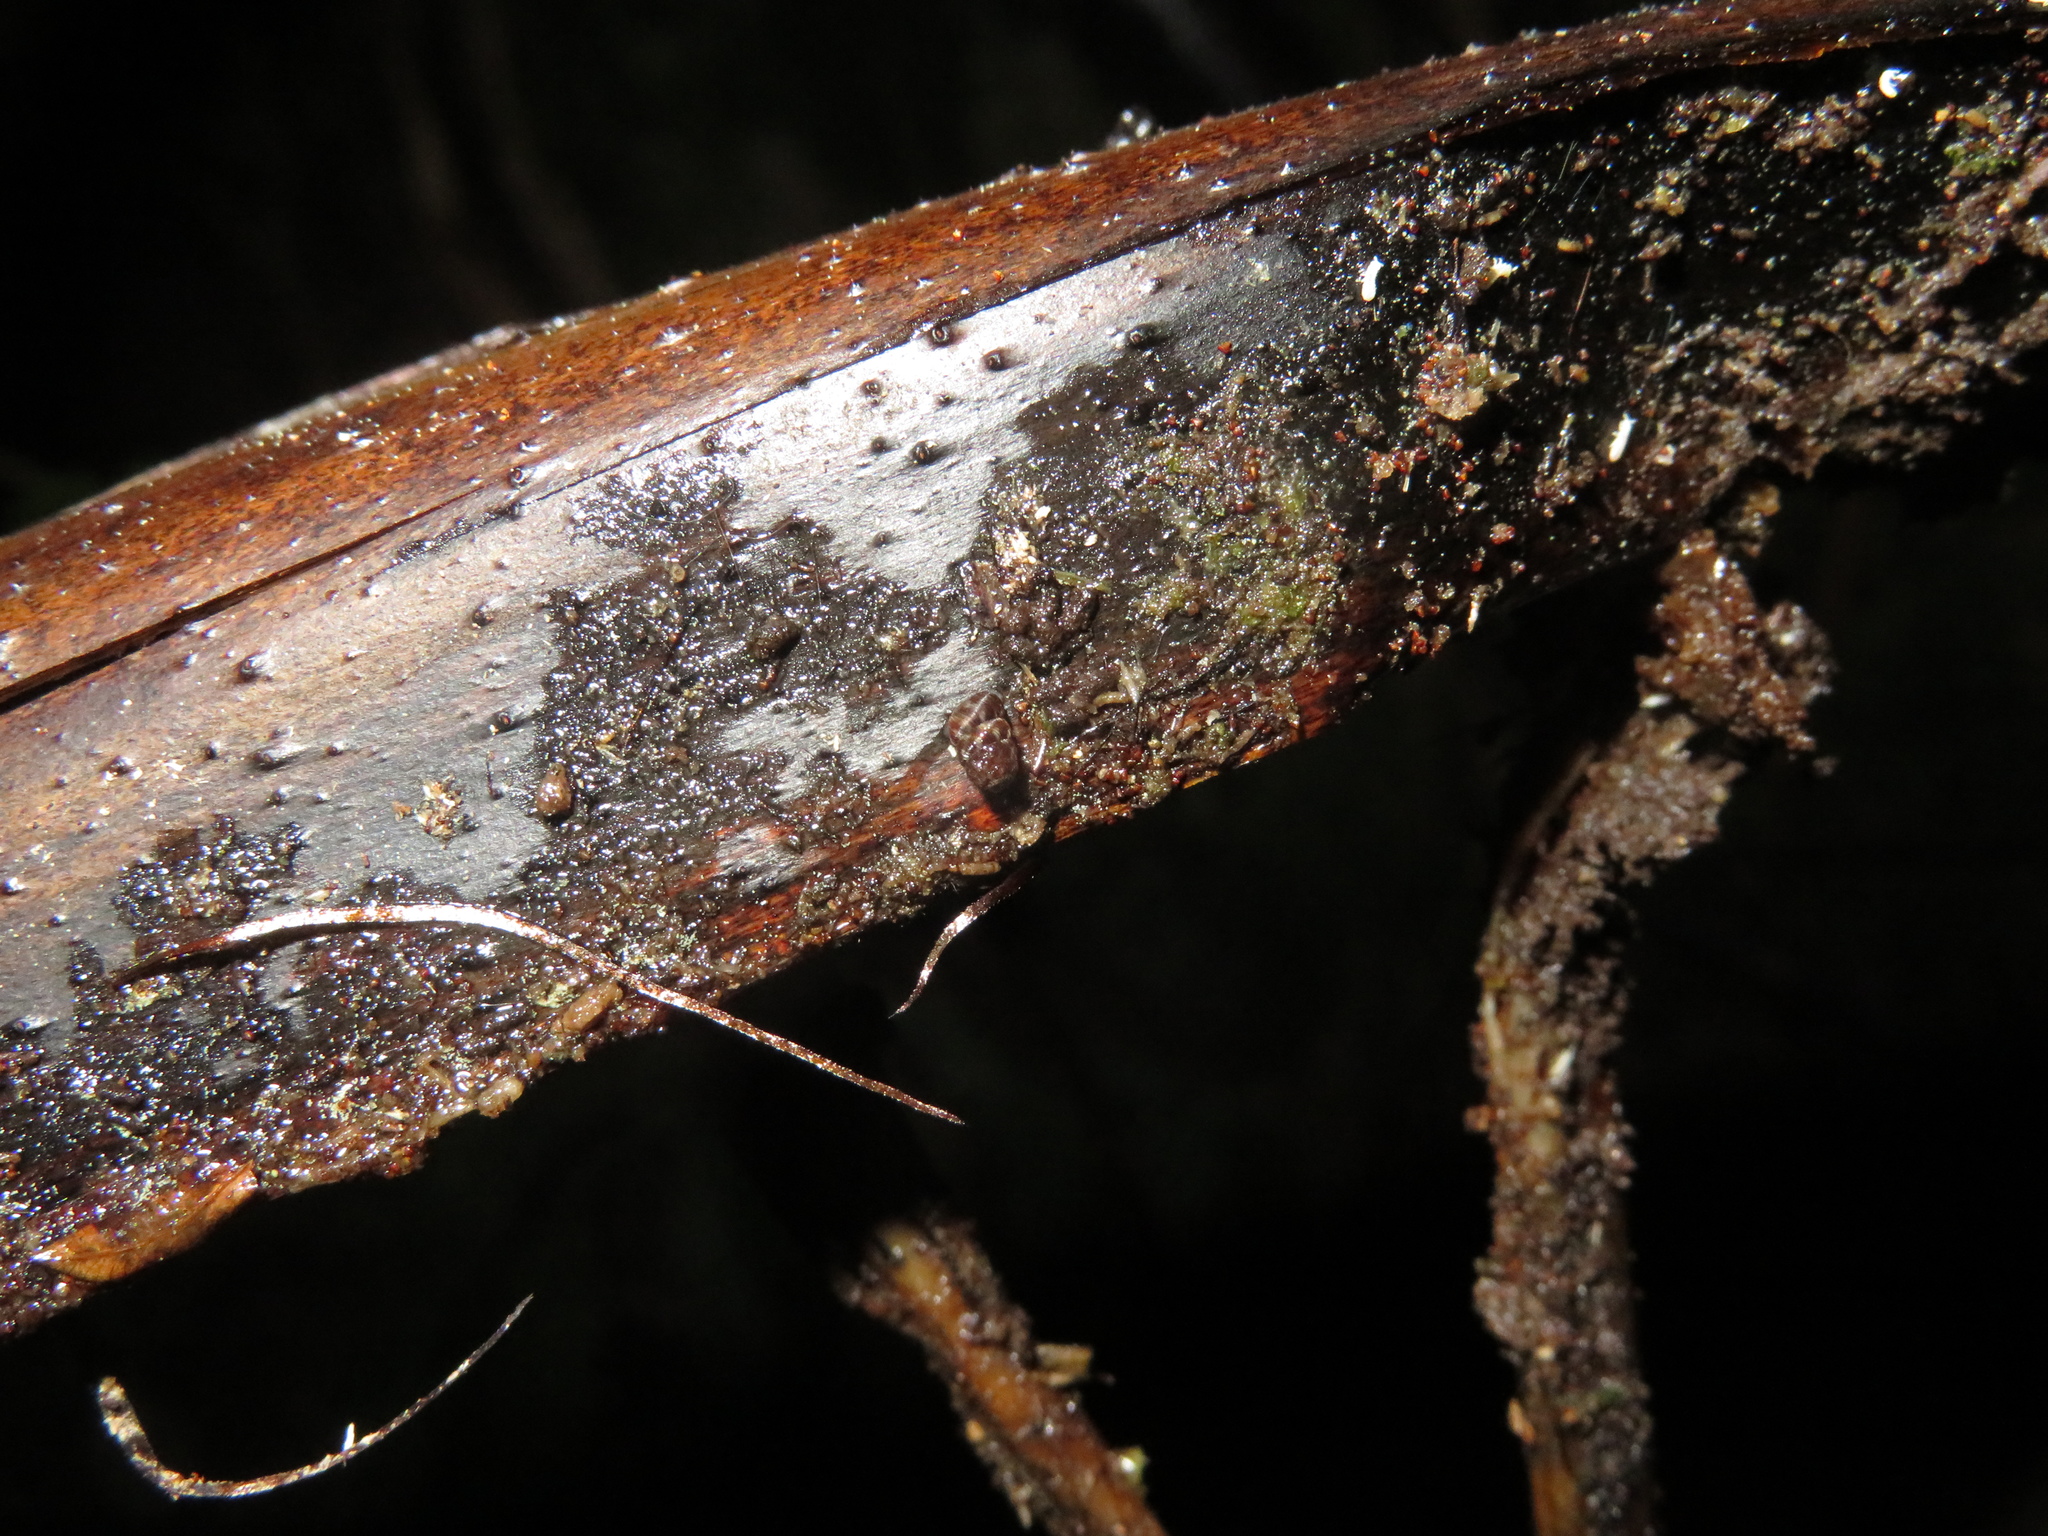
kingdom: Animalia
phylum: Mollusca
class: Gastropoda
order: Stylommatophora
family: Charopidae
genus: Phenacharopa
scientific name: Phenacharopa novoseelandica
